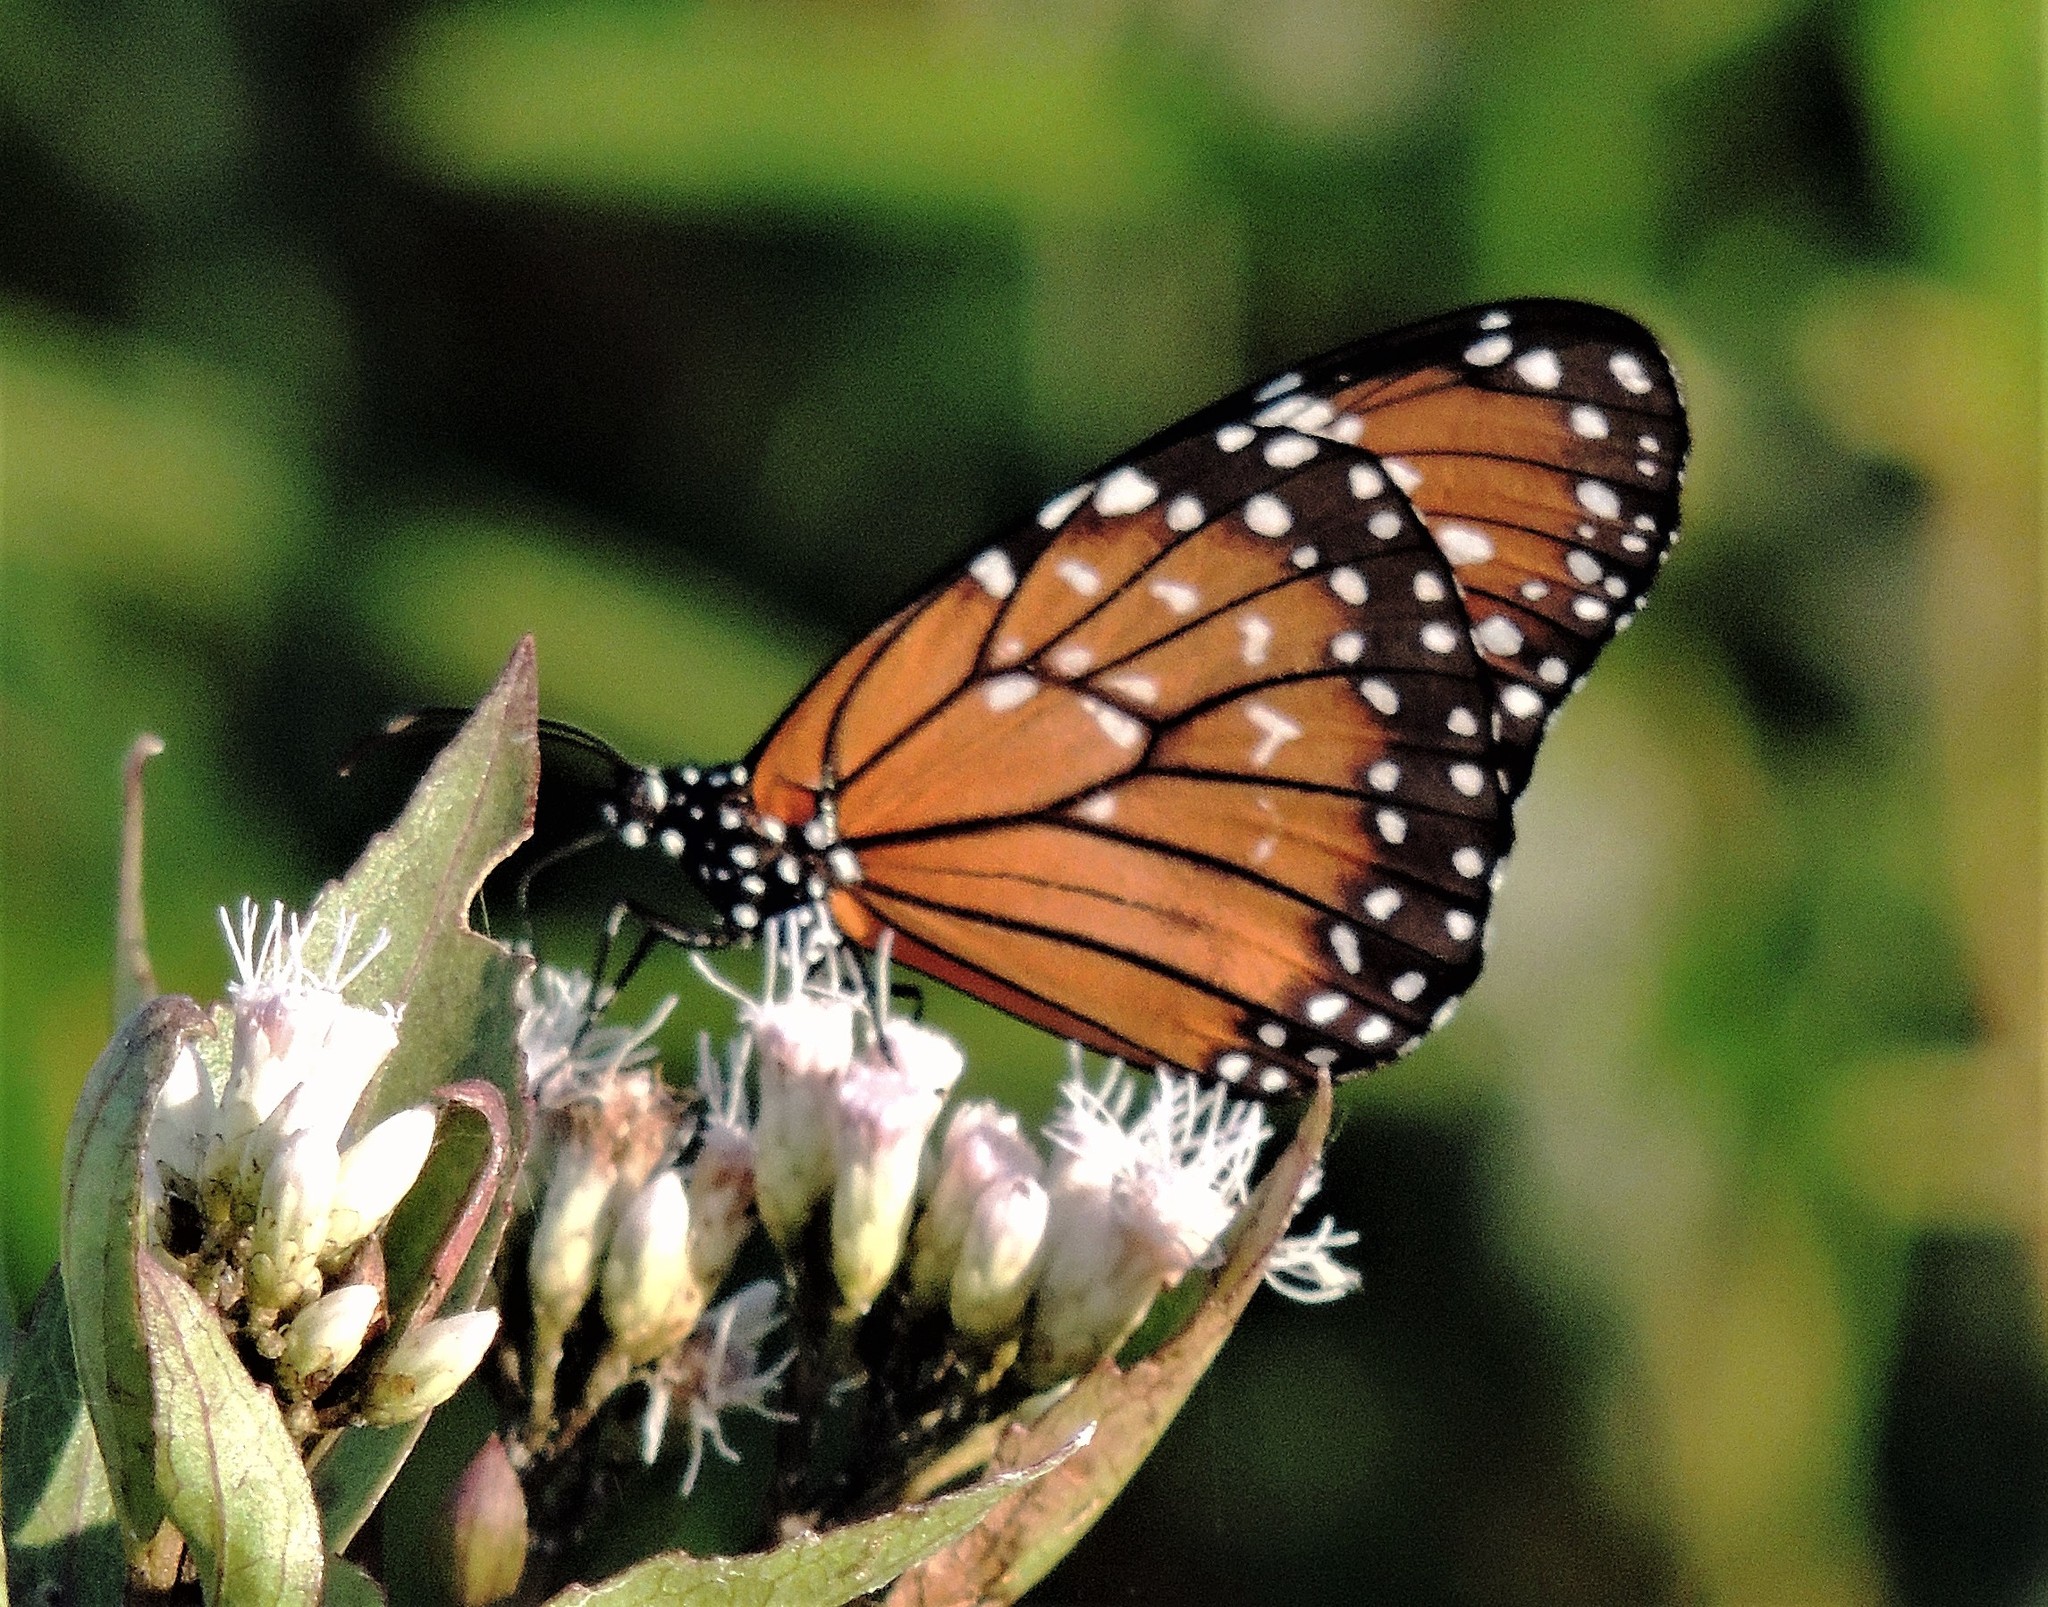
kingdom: Animalia
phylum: Arthropoda
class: Insecta
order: Lepidoptera
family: Nymphalidae
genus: Danaus
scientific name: Danaus eresimus
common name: Soldier
